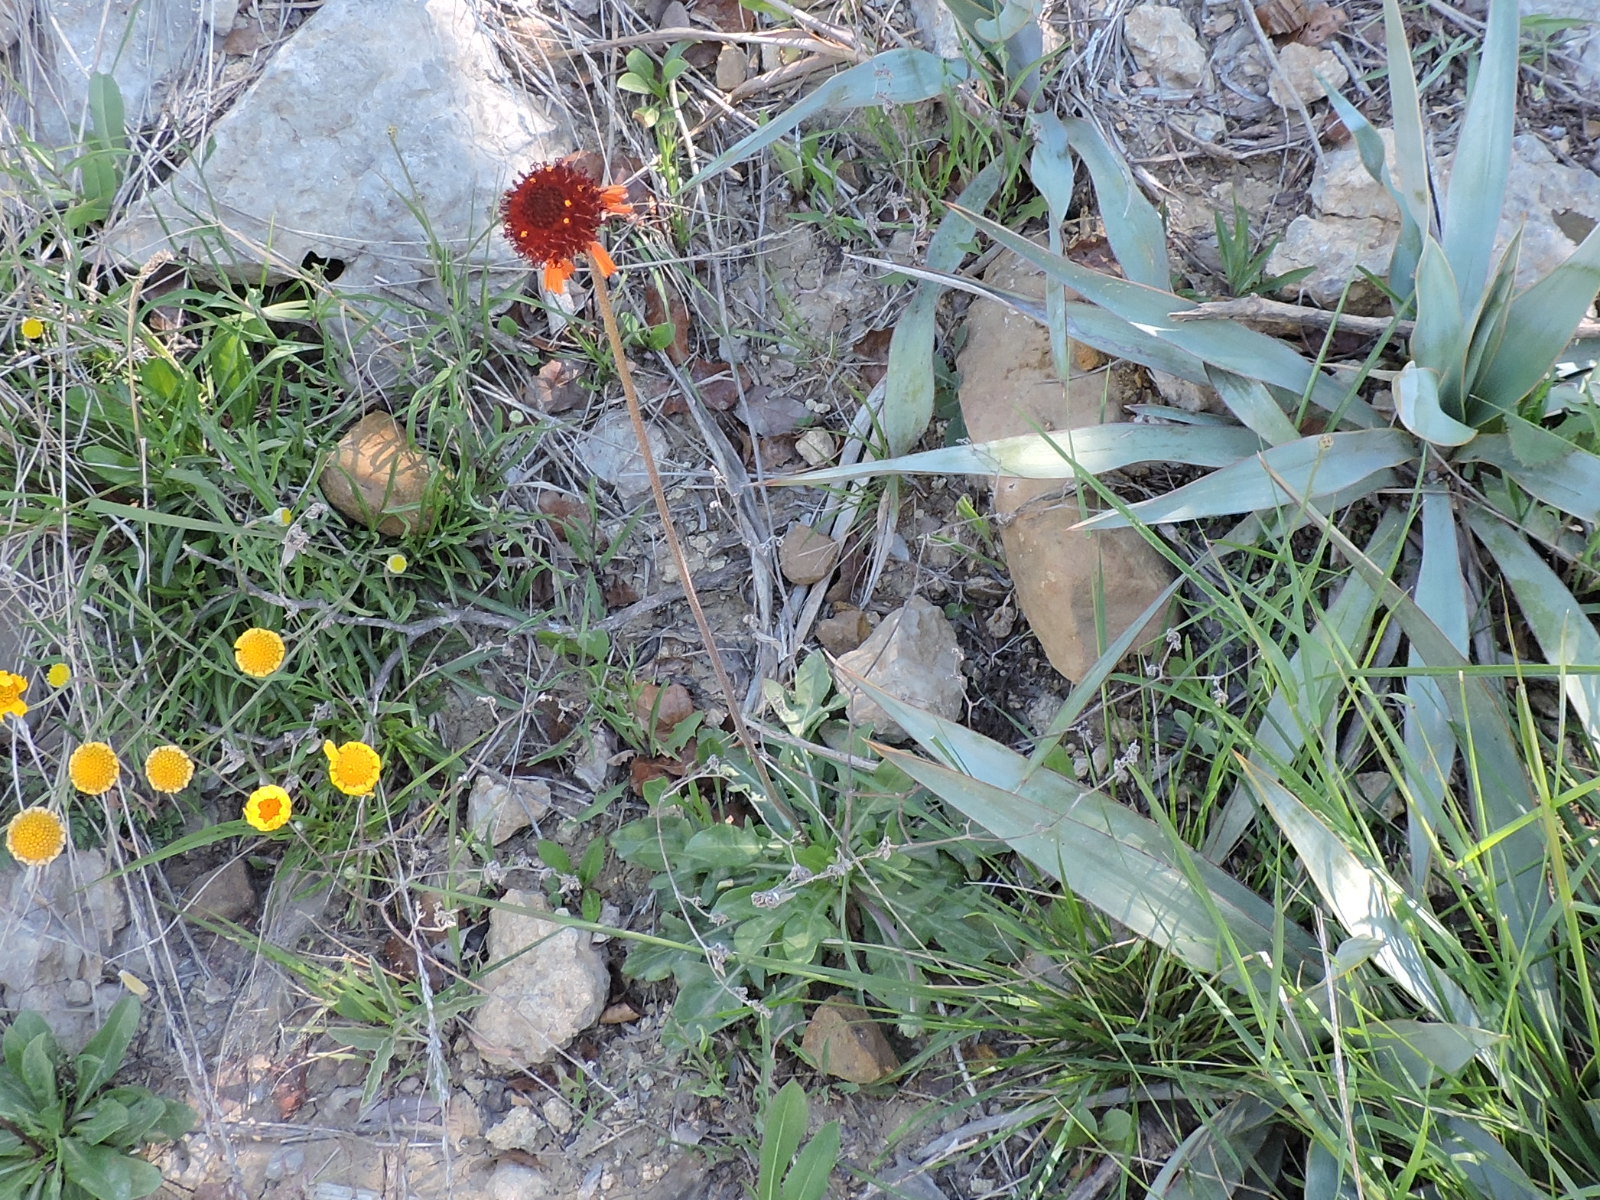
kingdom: Plantae
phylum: Tracheophyta
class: Magnoliopsida
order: Asterales
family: Asteraceae
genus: Gaillardia
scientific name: Gaillardia suavis
